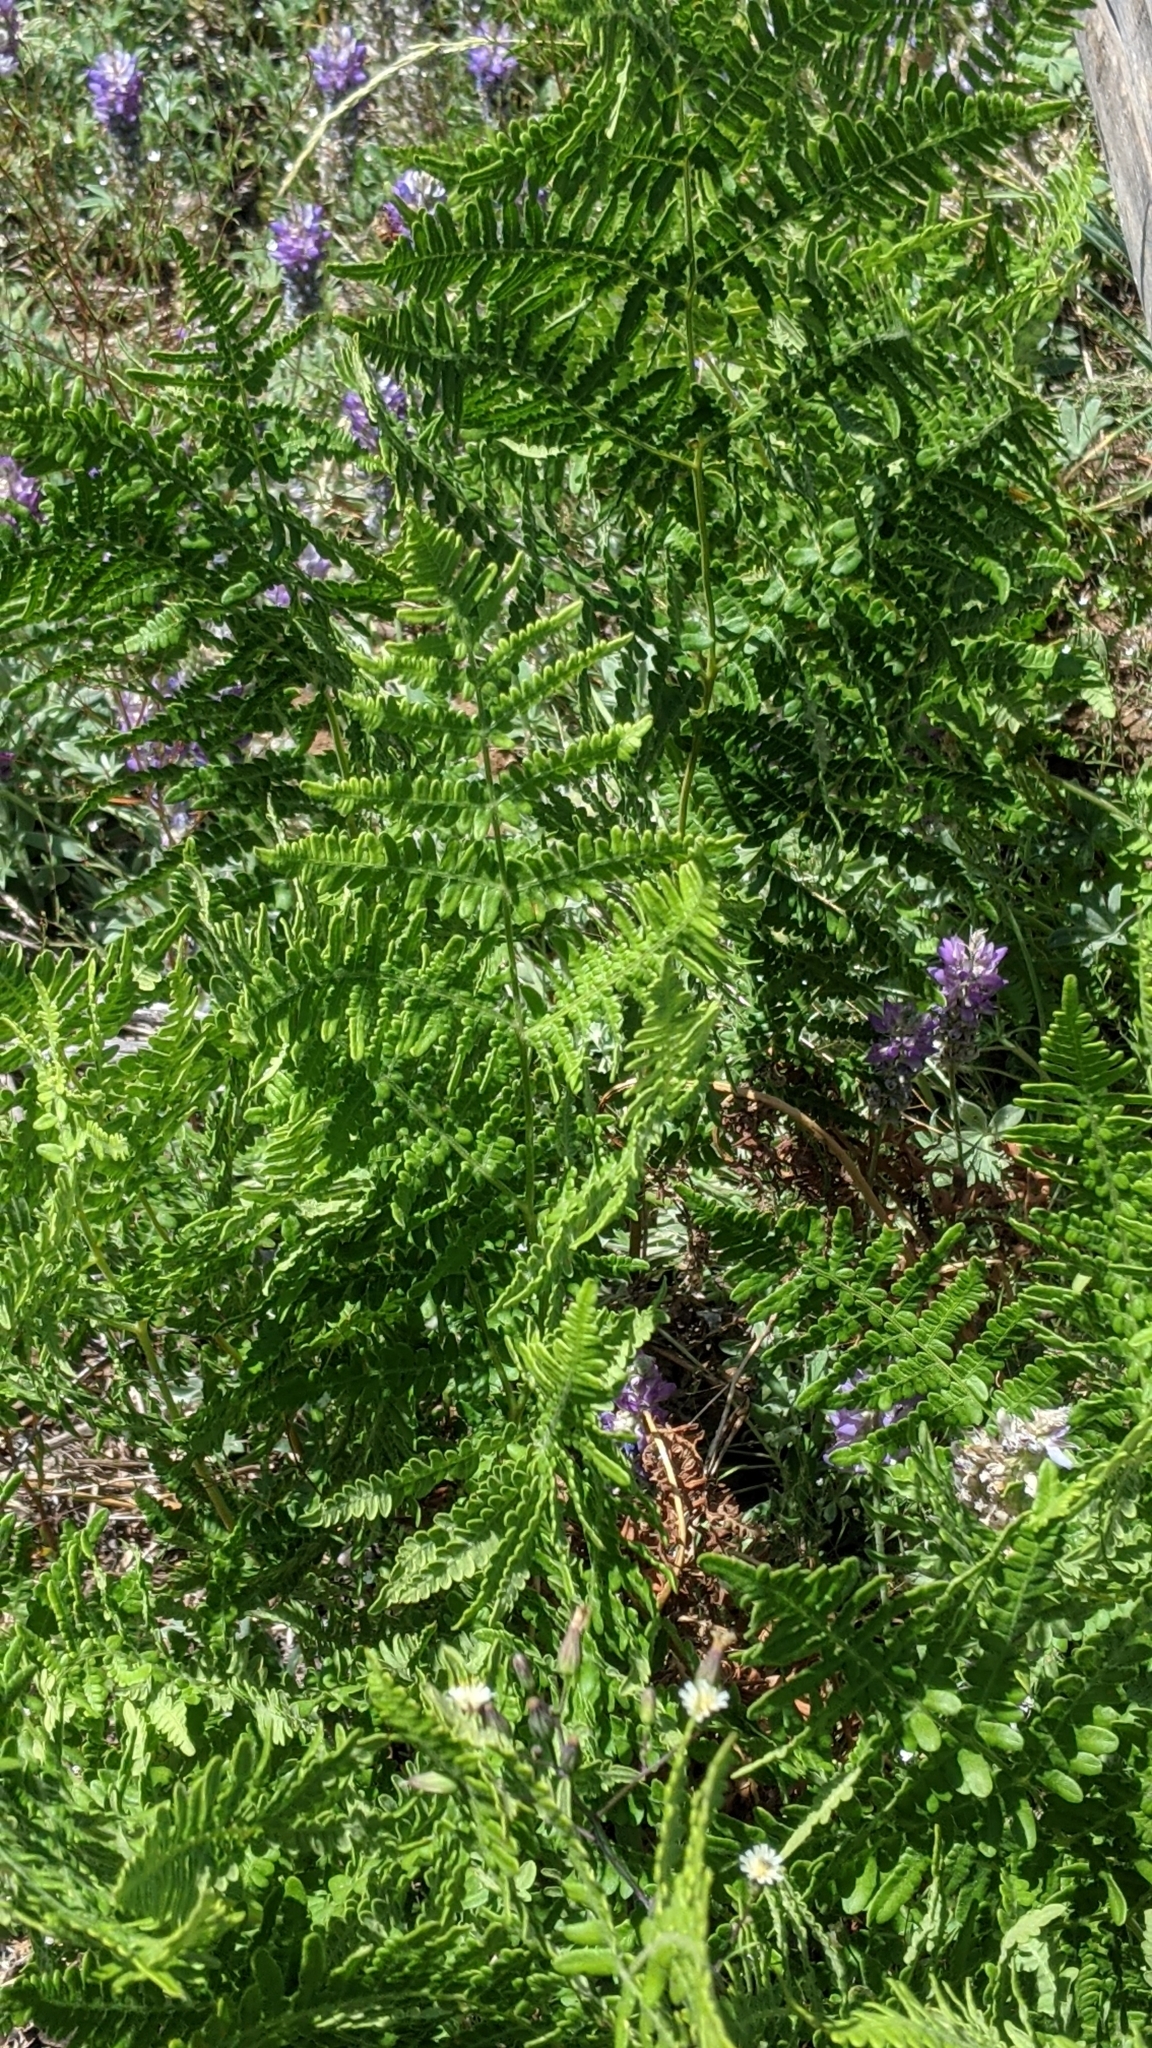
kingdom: Plantae
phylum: Tracheophyta
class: Polypodiopsida
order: Polypodiales
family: Dennstaedtiaceae
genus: Pteridium
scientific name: Pteridium aquilinum
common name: Bracken
